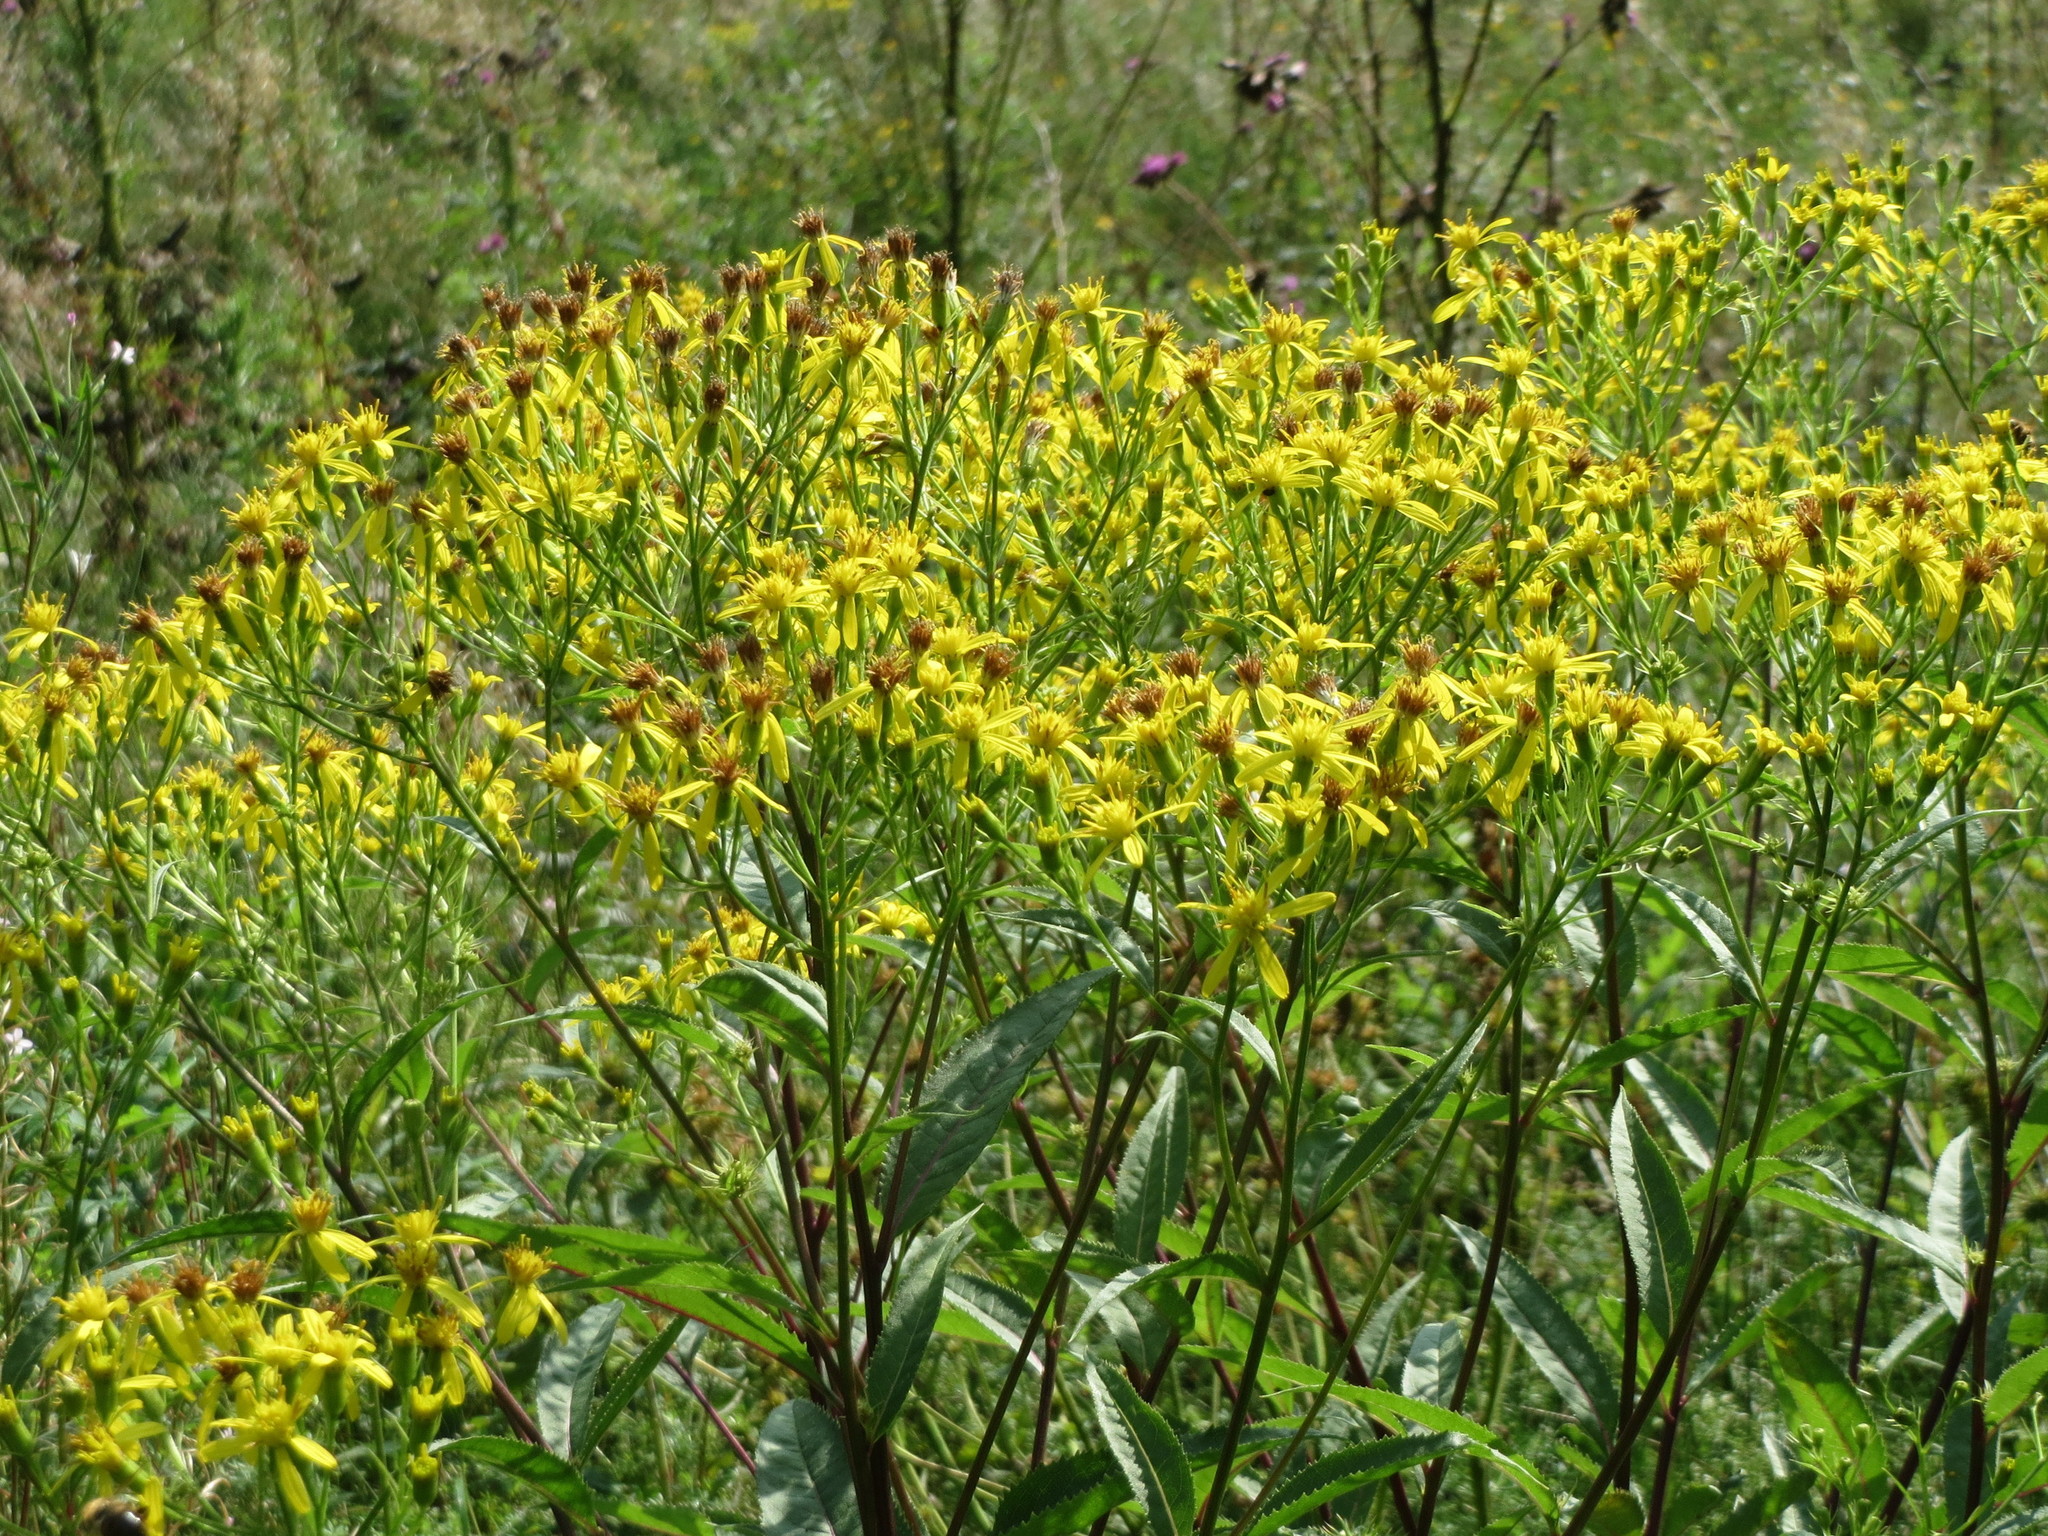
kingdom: Plantae
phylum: Tracheophyta
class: Magnoliopsida
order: Asterales
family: Asteraceae
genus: Senecio
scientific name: Senecio ovatus
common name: Wood ragwort
